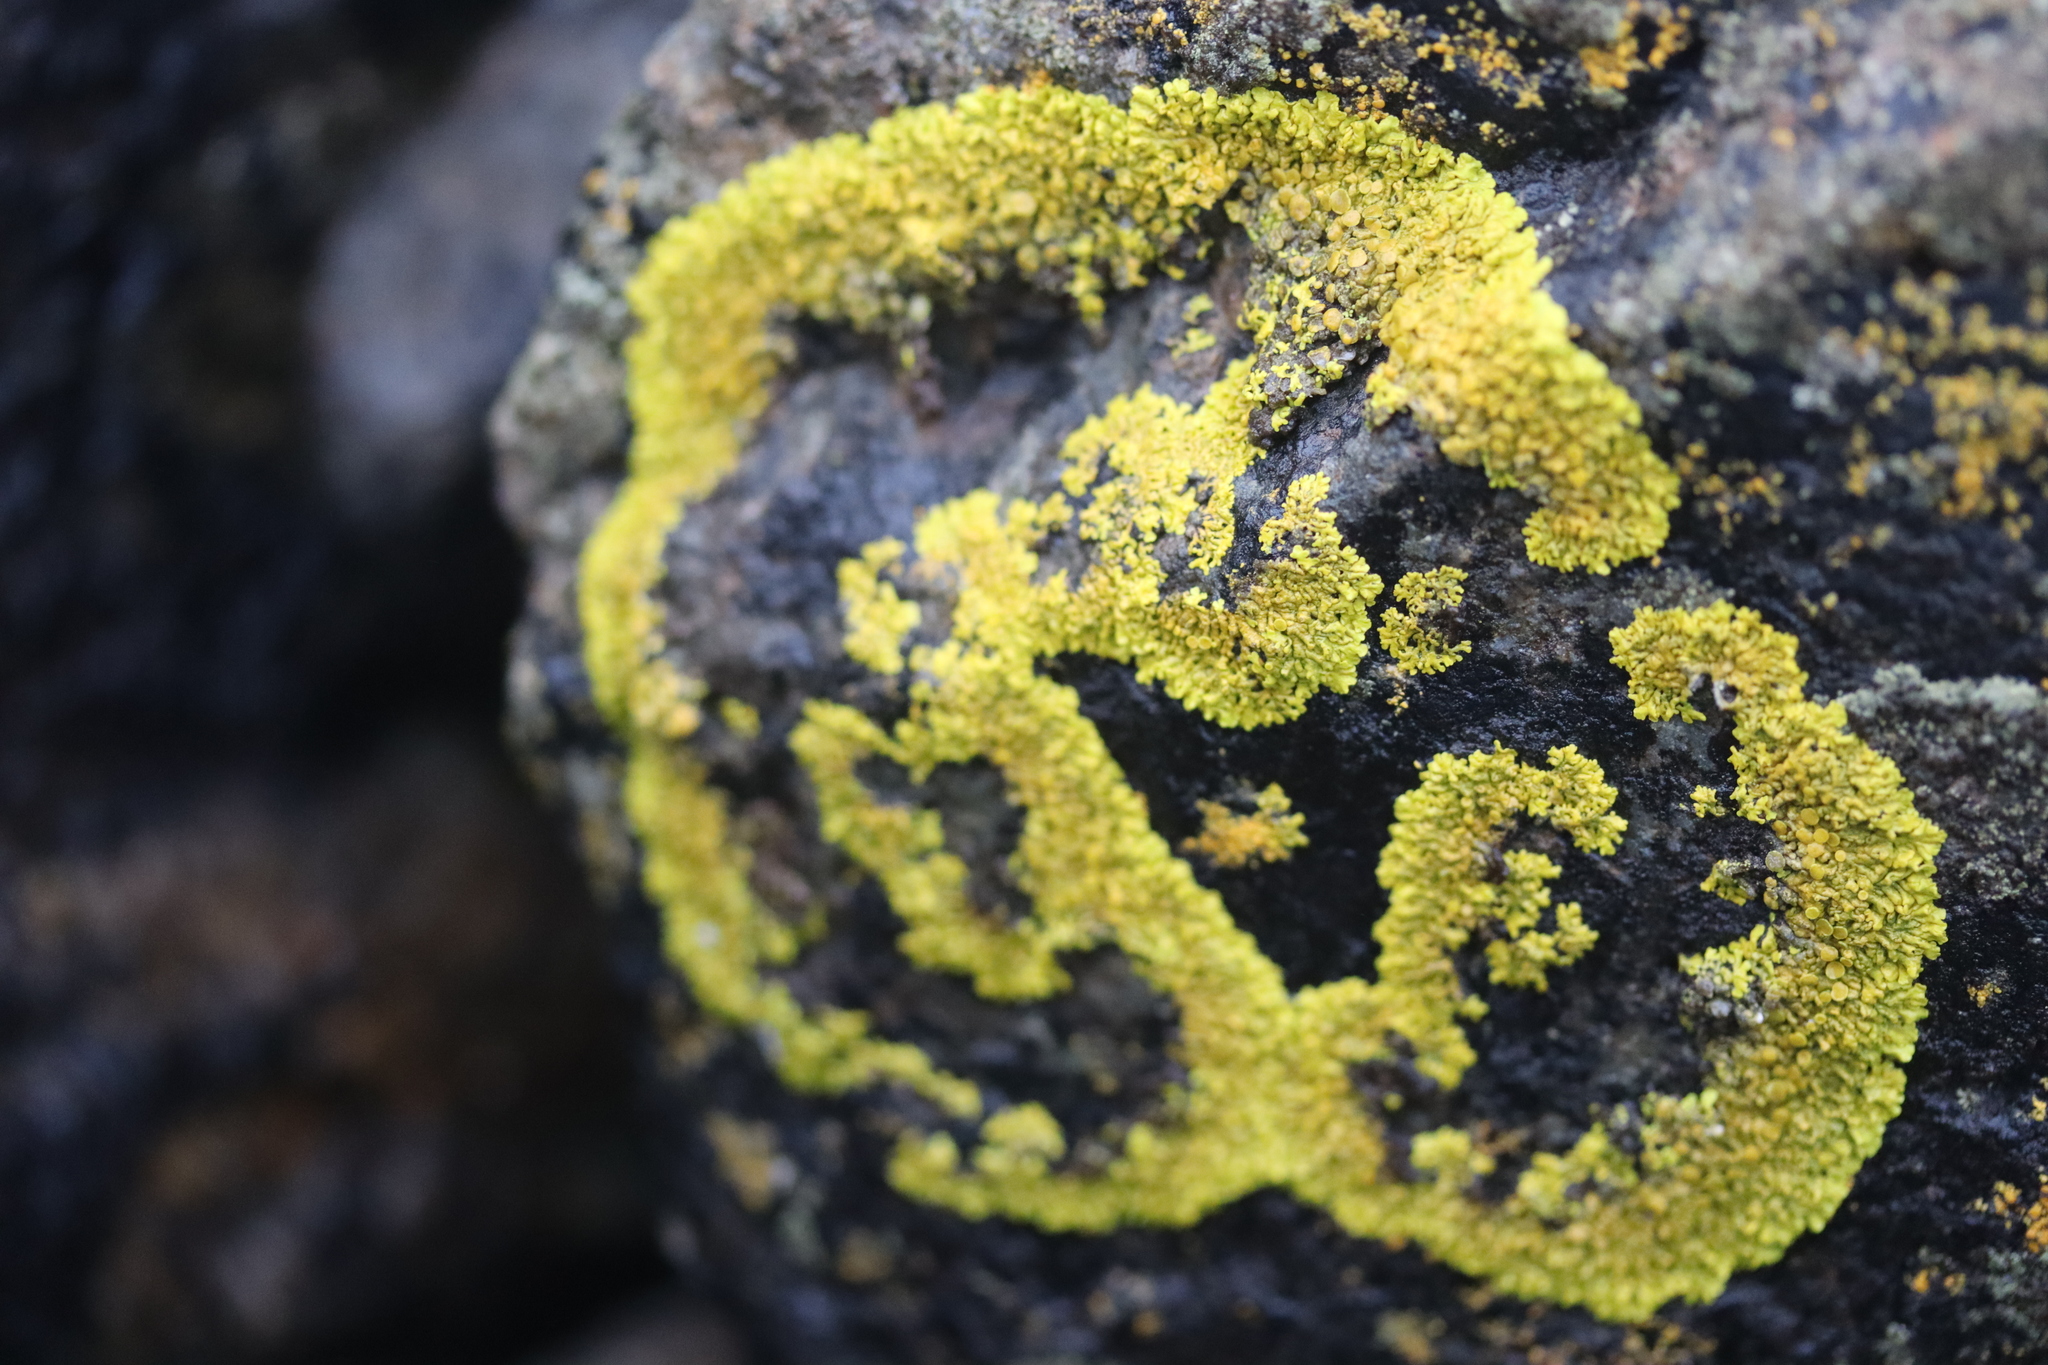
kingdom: Fungi
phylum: Ascomycota
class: Lecanoromycetes
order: Teloschistales
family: Teloschistaceae
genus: Xanthoria
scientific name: Xanthoria parietina
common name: Common orange lichen
